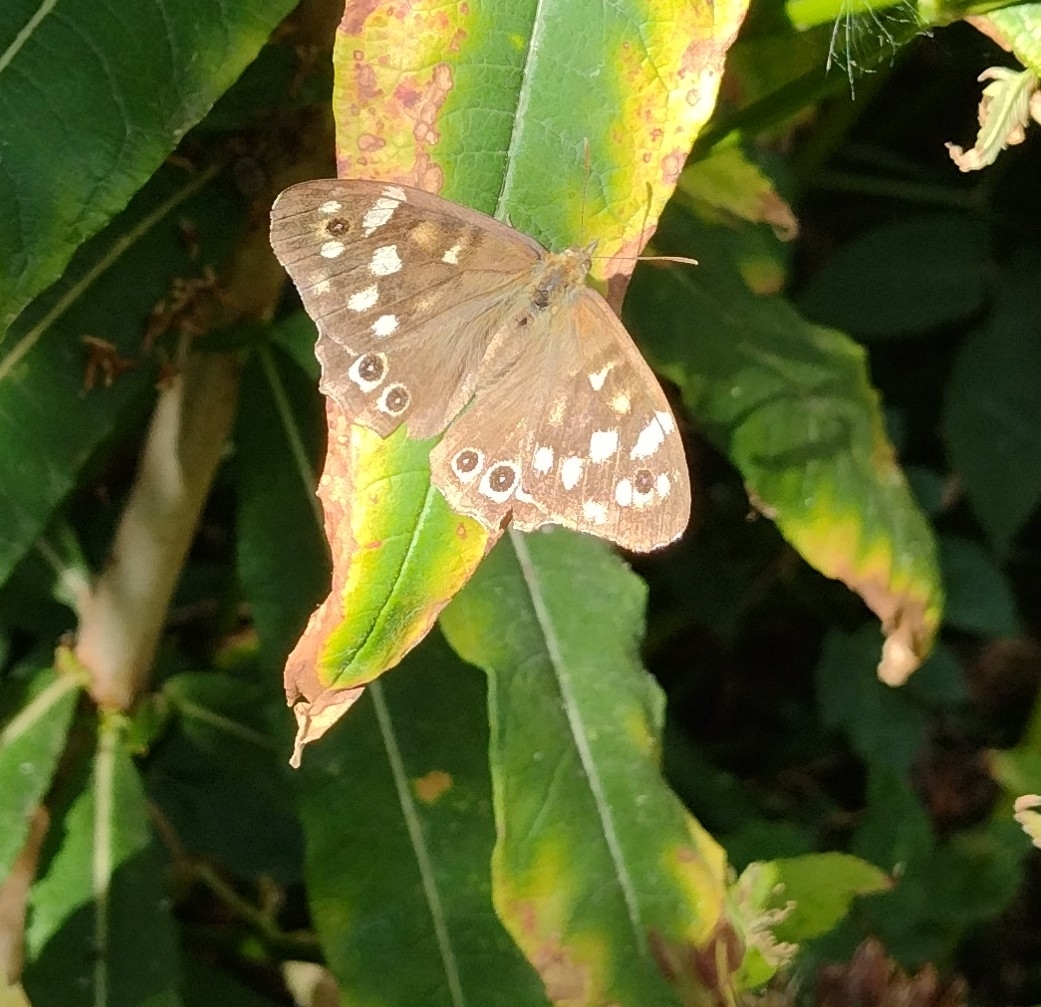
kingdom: Animalia
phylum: Arthropoda
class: Insecta
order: Lepidoptera
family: Nymphalidae
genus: Pararge
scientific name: Pararge aegeria
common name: Speckled wood
